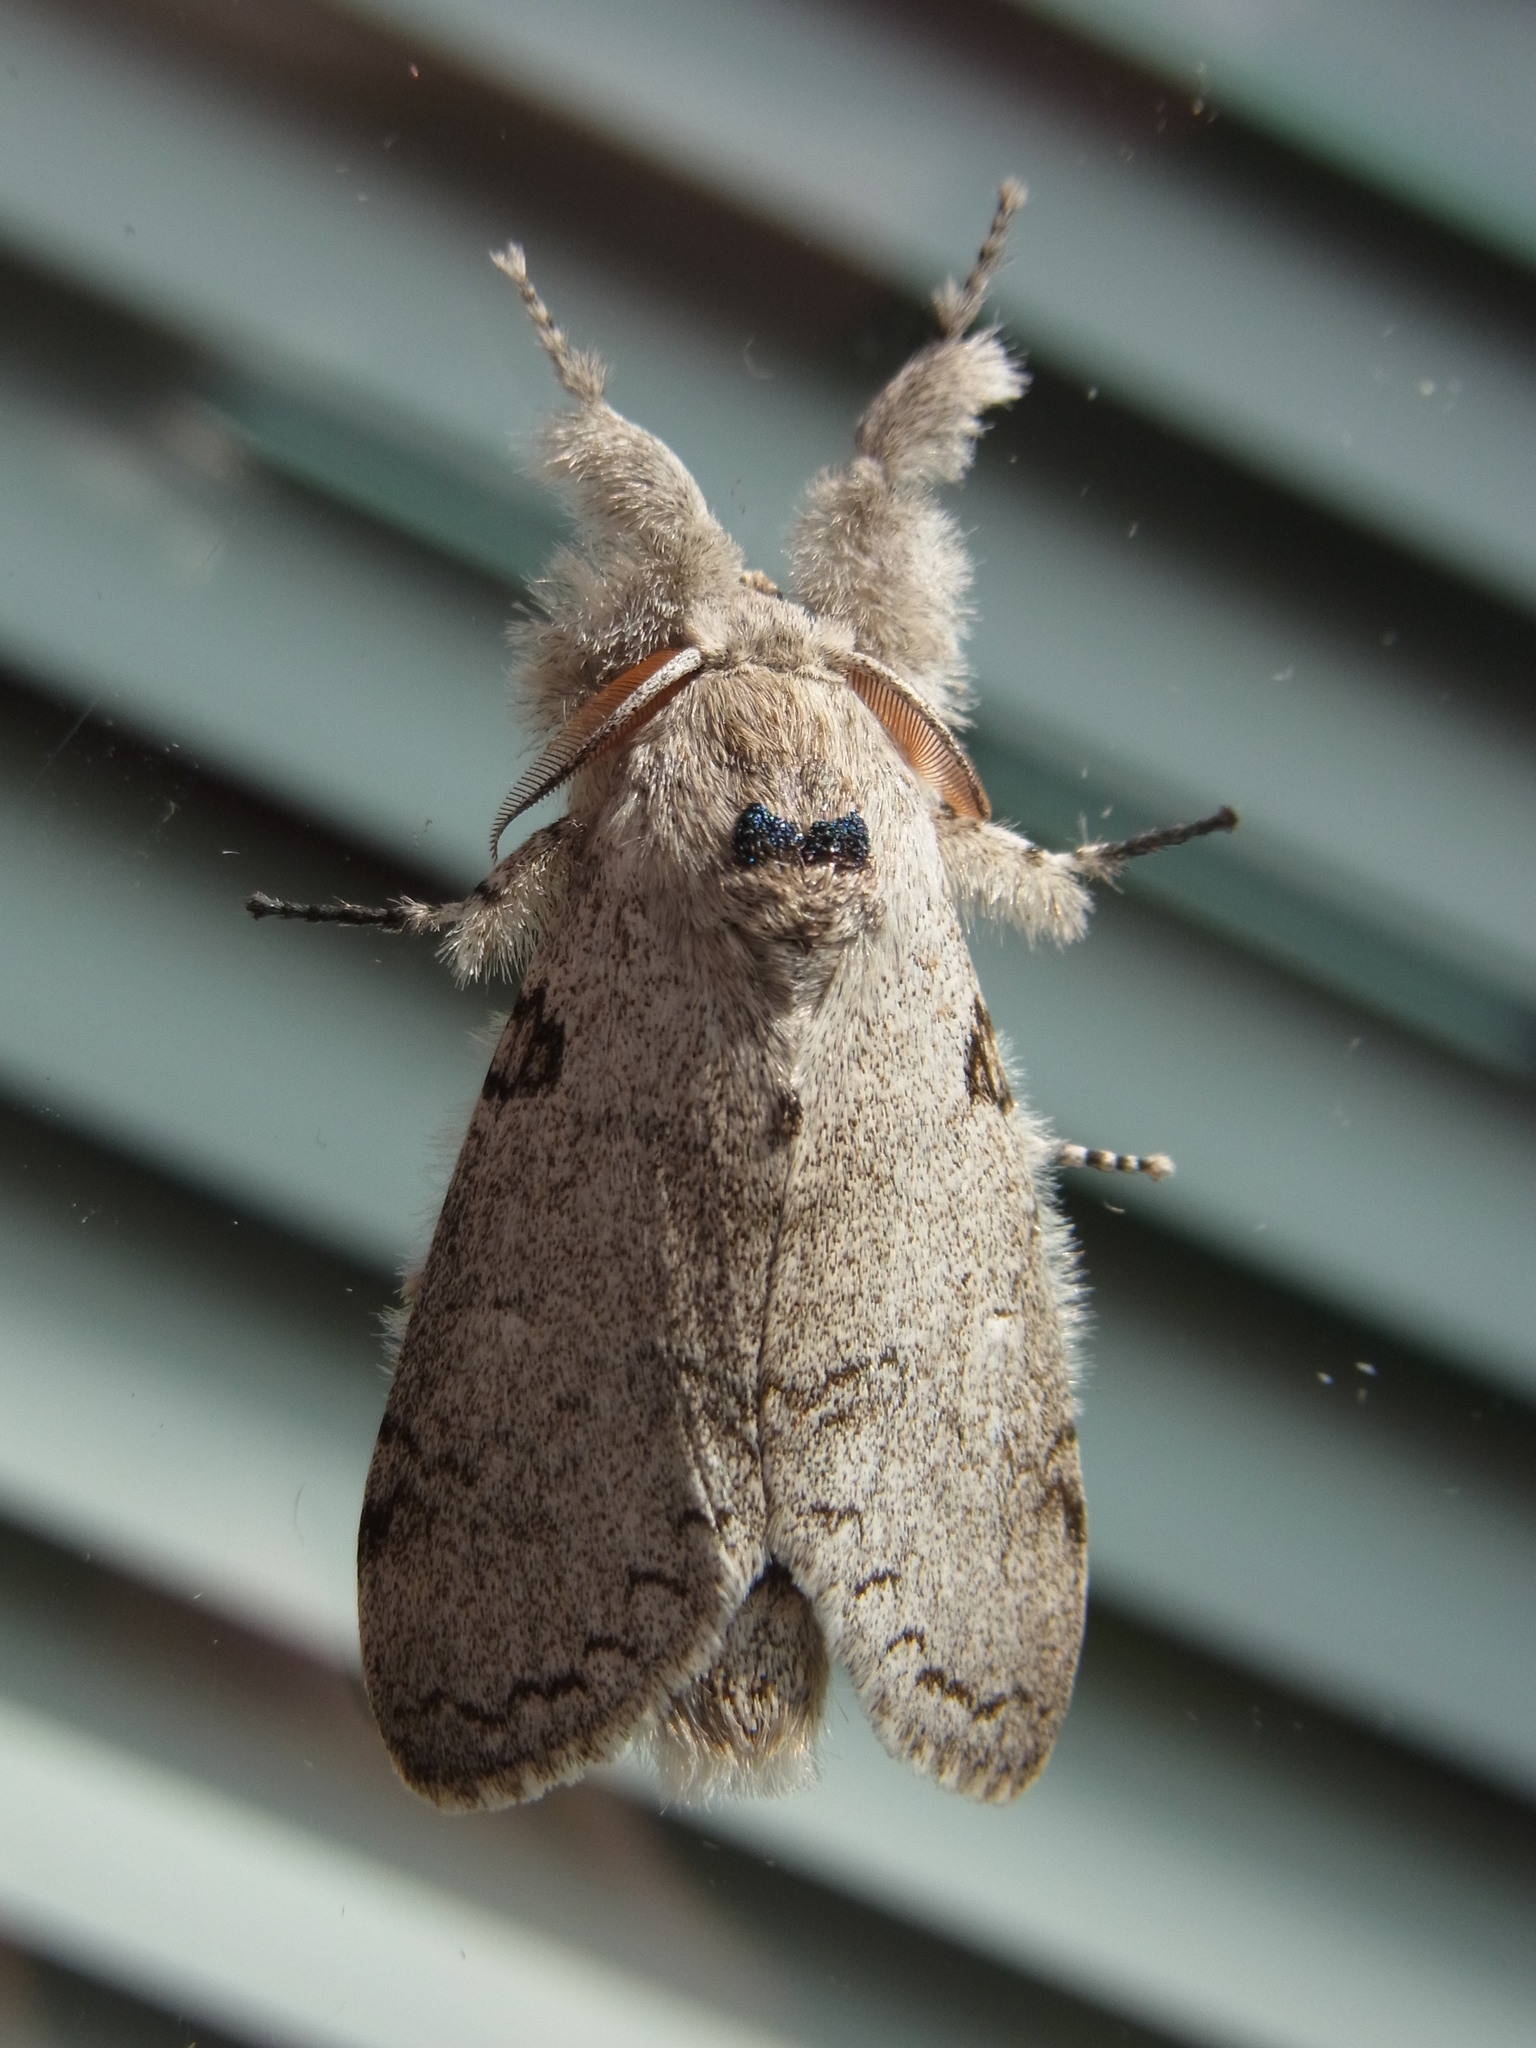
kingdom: Animalia
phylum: Arthropoda
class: Insecta
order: Lepidoptera
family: Erebidae
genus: Calliteara
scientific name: Calliteara lunulata
